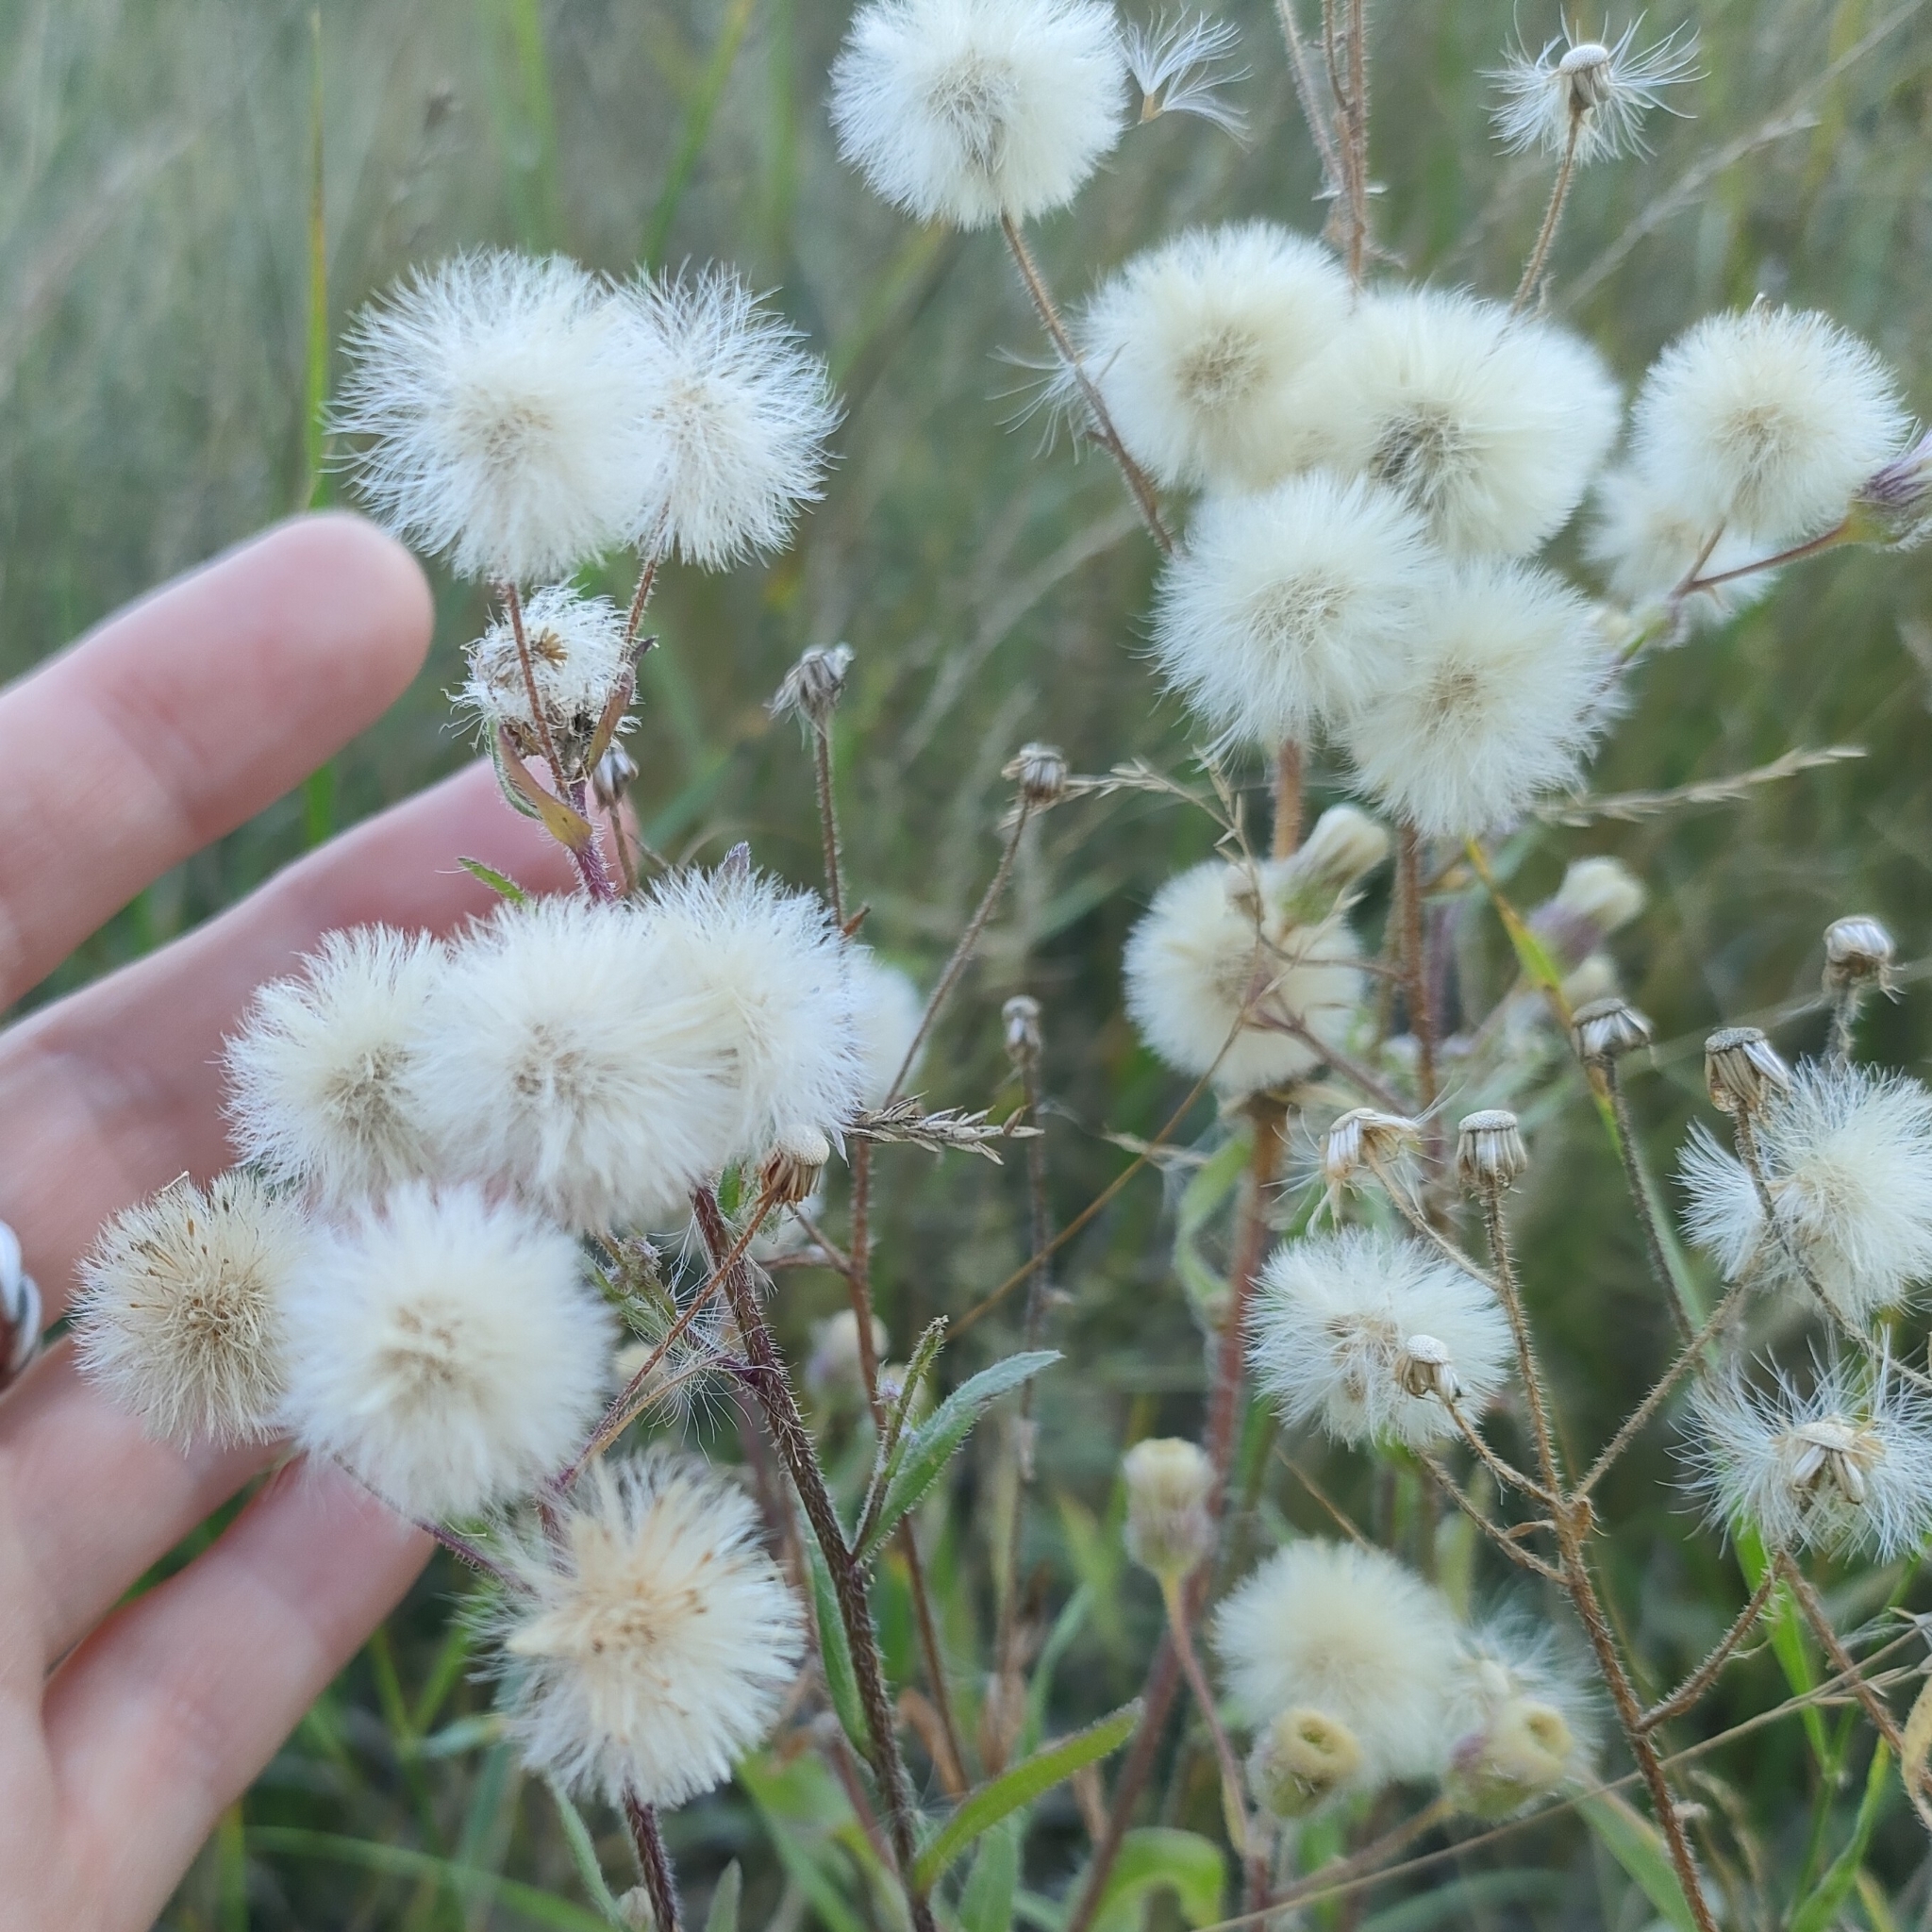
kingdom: Plantae
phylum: Tracheophyta
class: Magnoliopsida
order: Asterales
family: Asteraceae
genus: Erigeron
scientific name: Erigeron acris
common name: Blue fleabane
